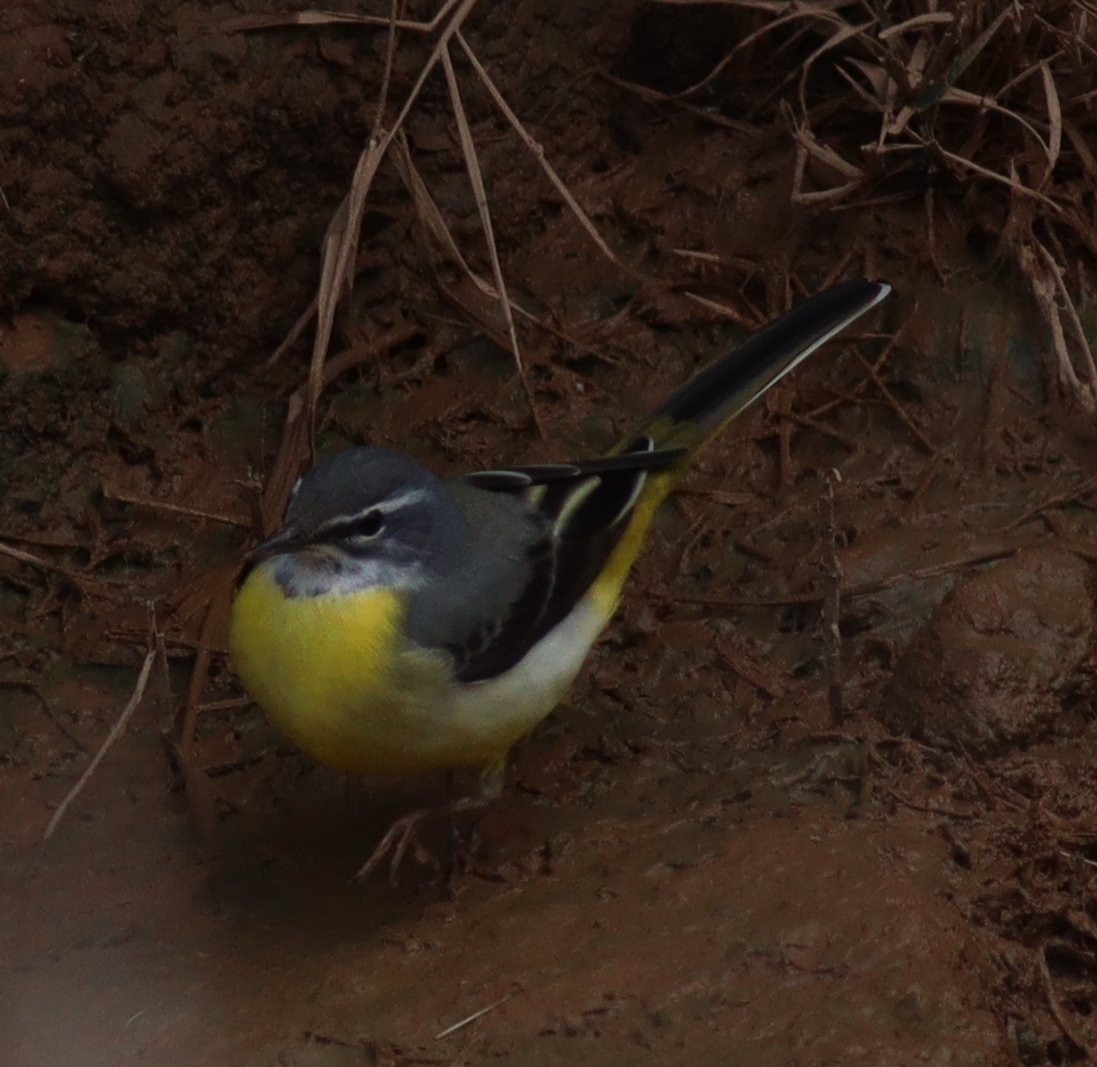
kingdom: Animalia
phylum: Chordata
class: Aves
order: Passeriformes
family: Motacillidae
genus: Motacilla
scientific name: Motacilla cinerea
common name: Grey wagtail
